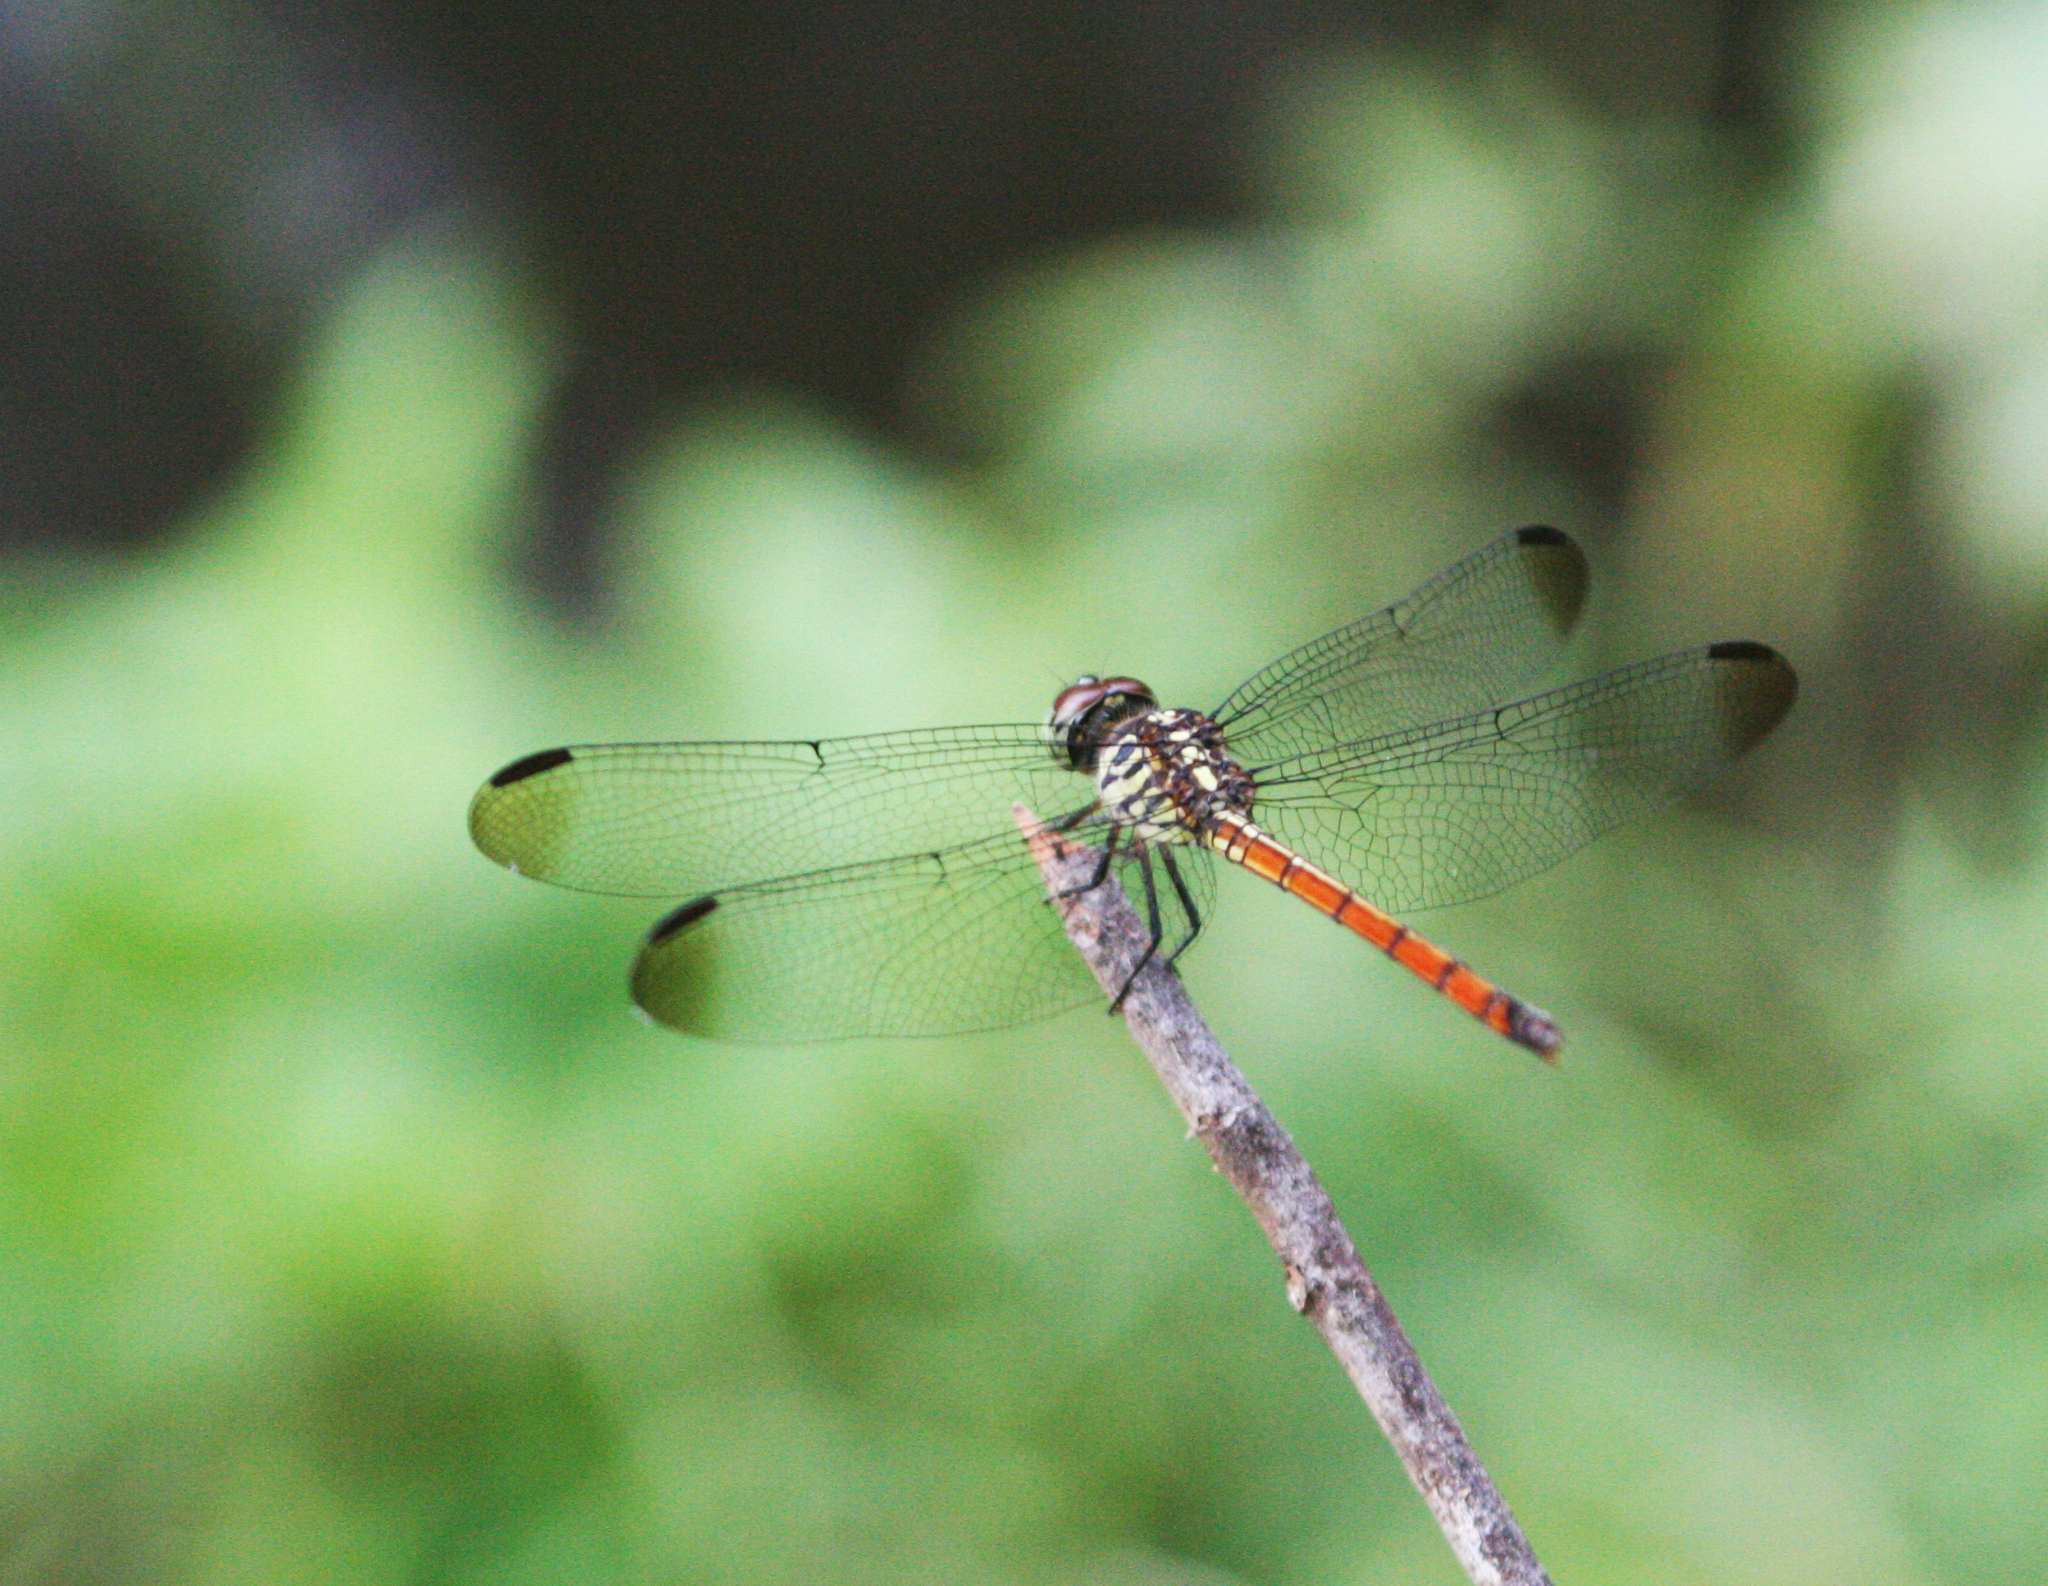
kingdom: Animalia
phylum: Arthropoda
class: Insecta
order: Odonata
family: Libellulidae
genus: Lathrecista
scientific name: Lathrecista asiatica
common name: Scarlet grenadier
